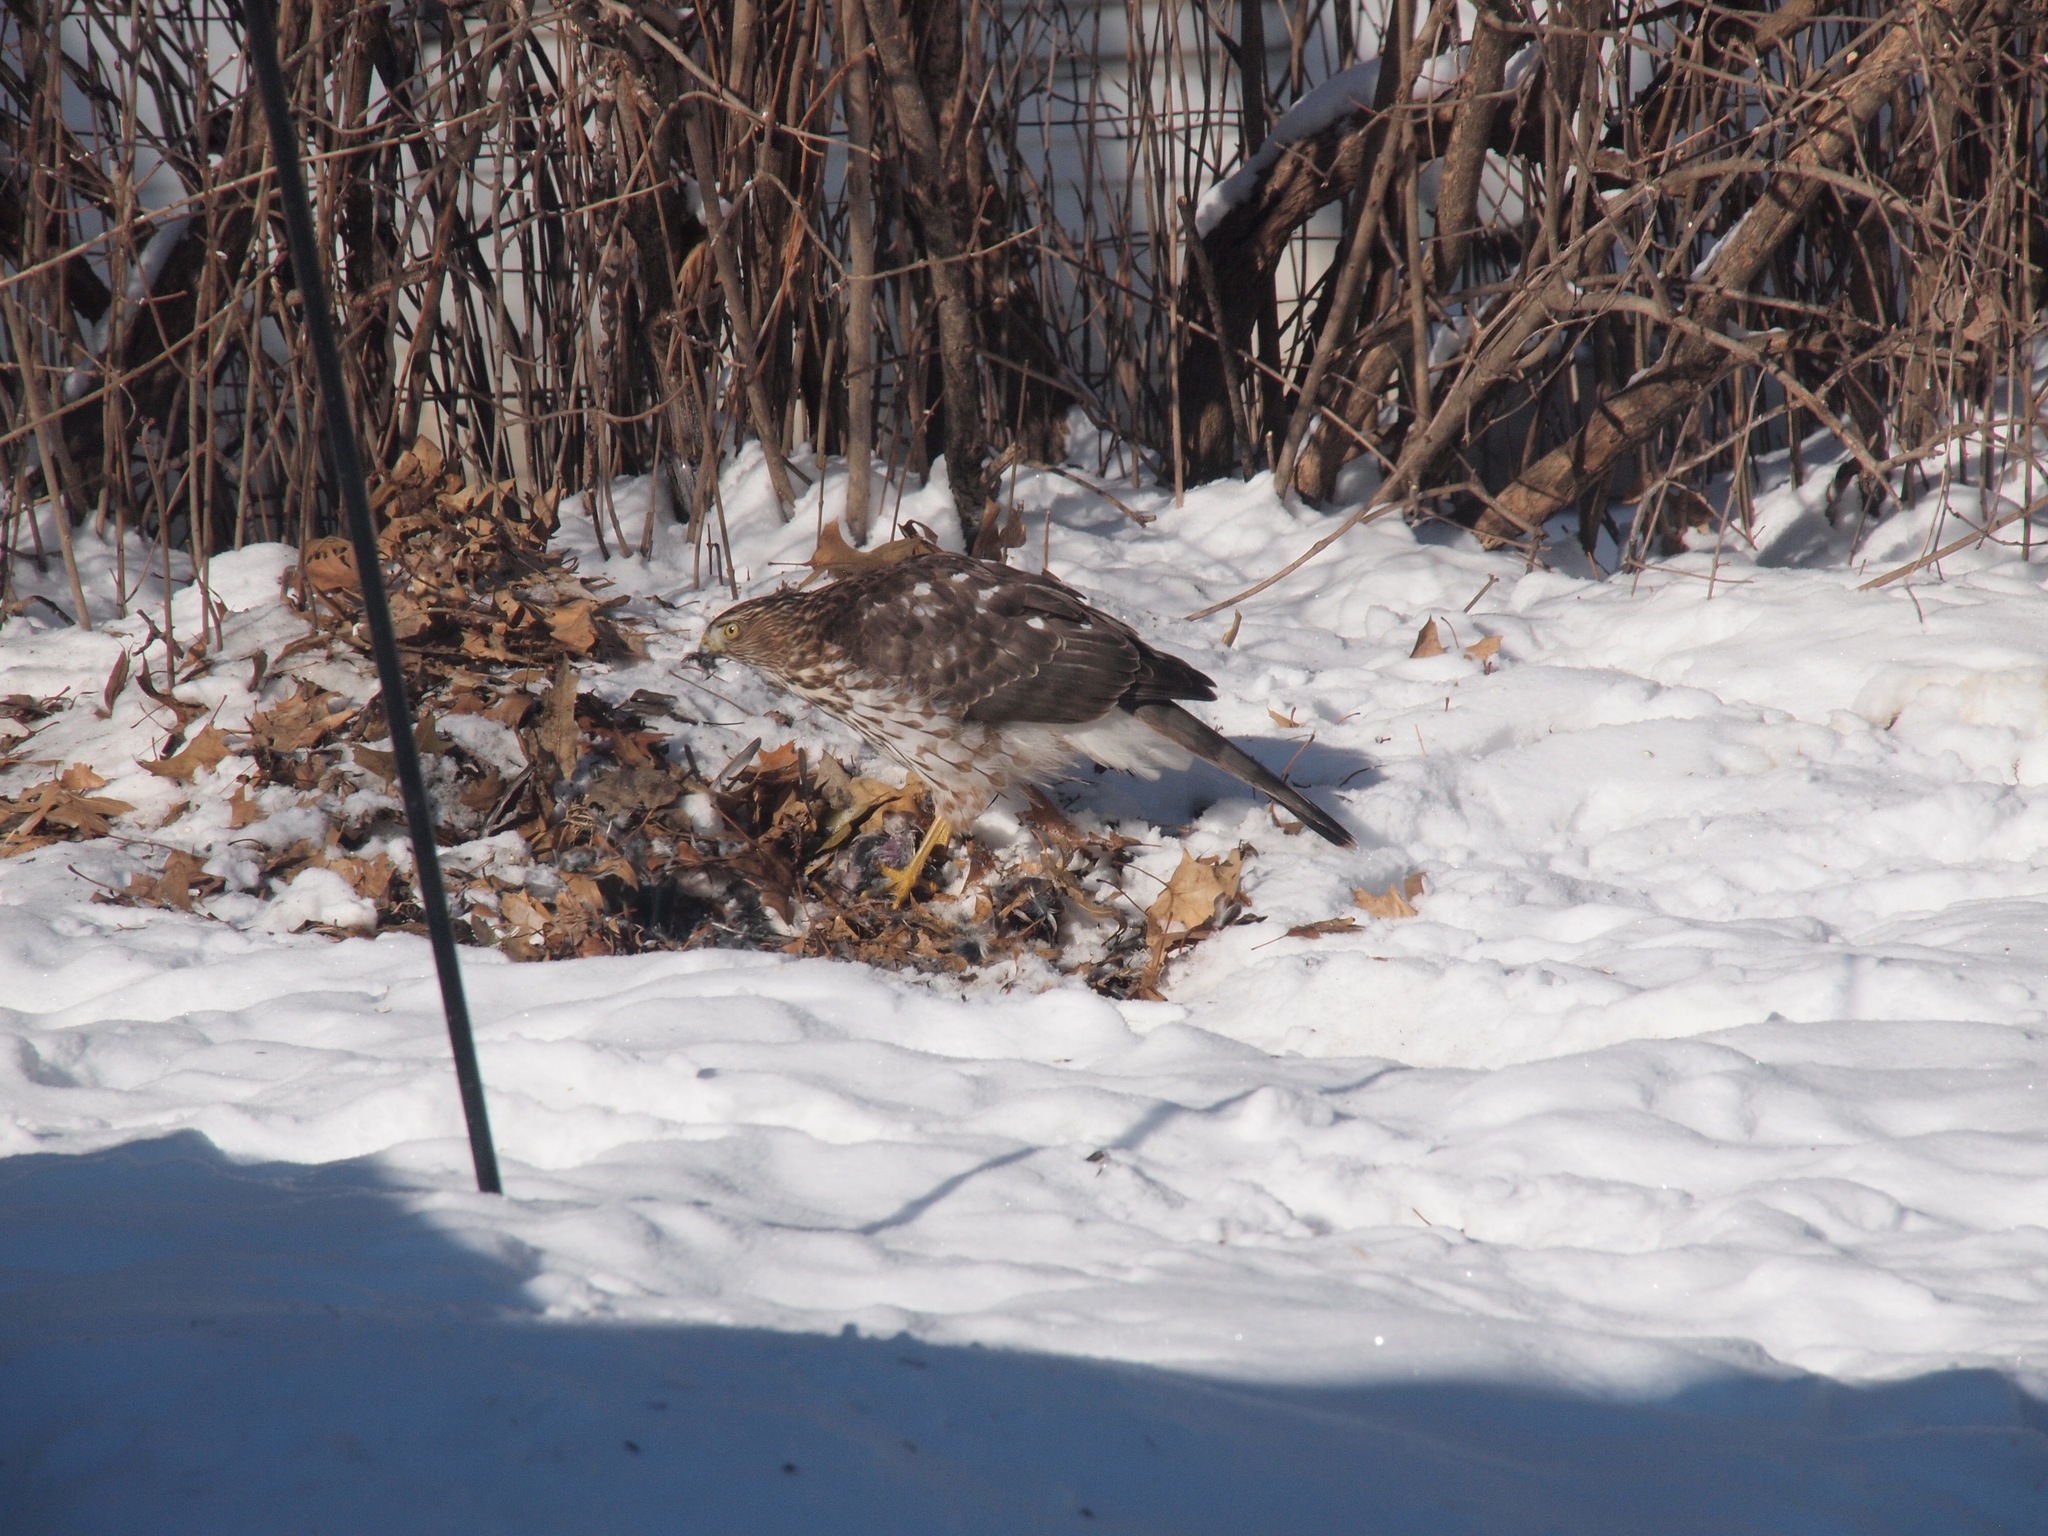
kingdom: Animalia
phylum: Chordata
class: Aves
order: Accipitriformes
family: Accipitridae
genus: Accipiter
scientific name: Accipiter cooperii
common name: Cooper's hawk
